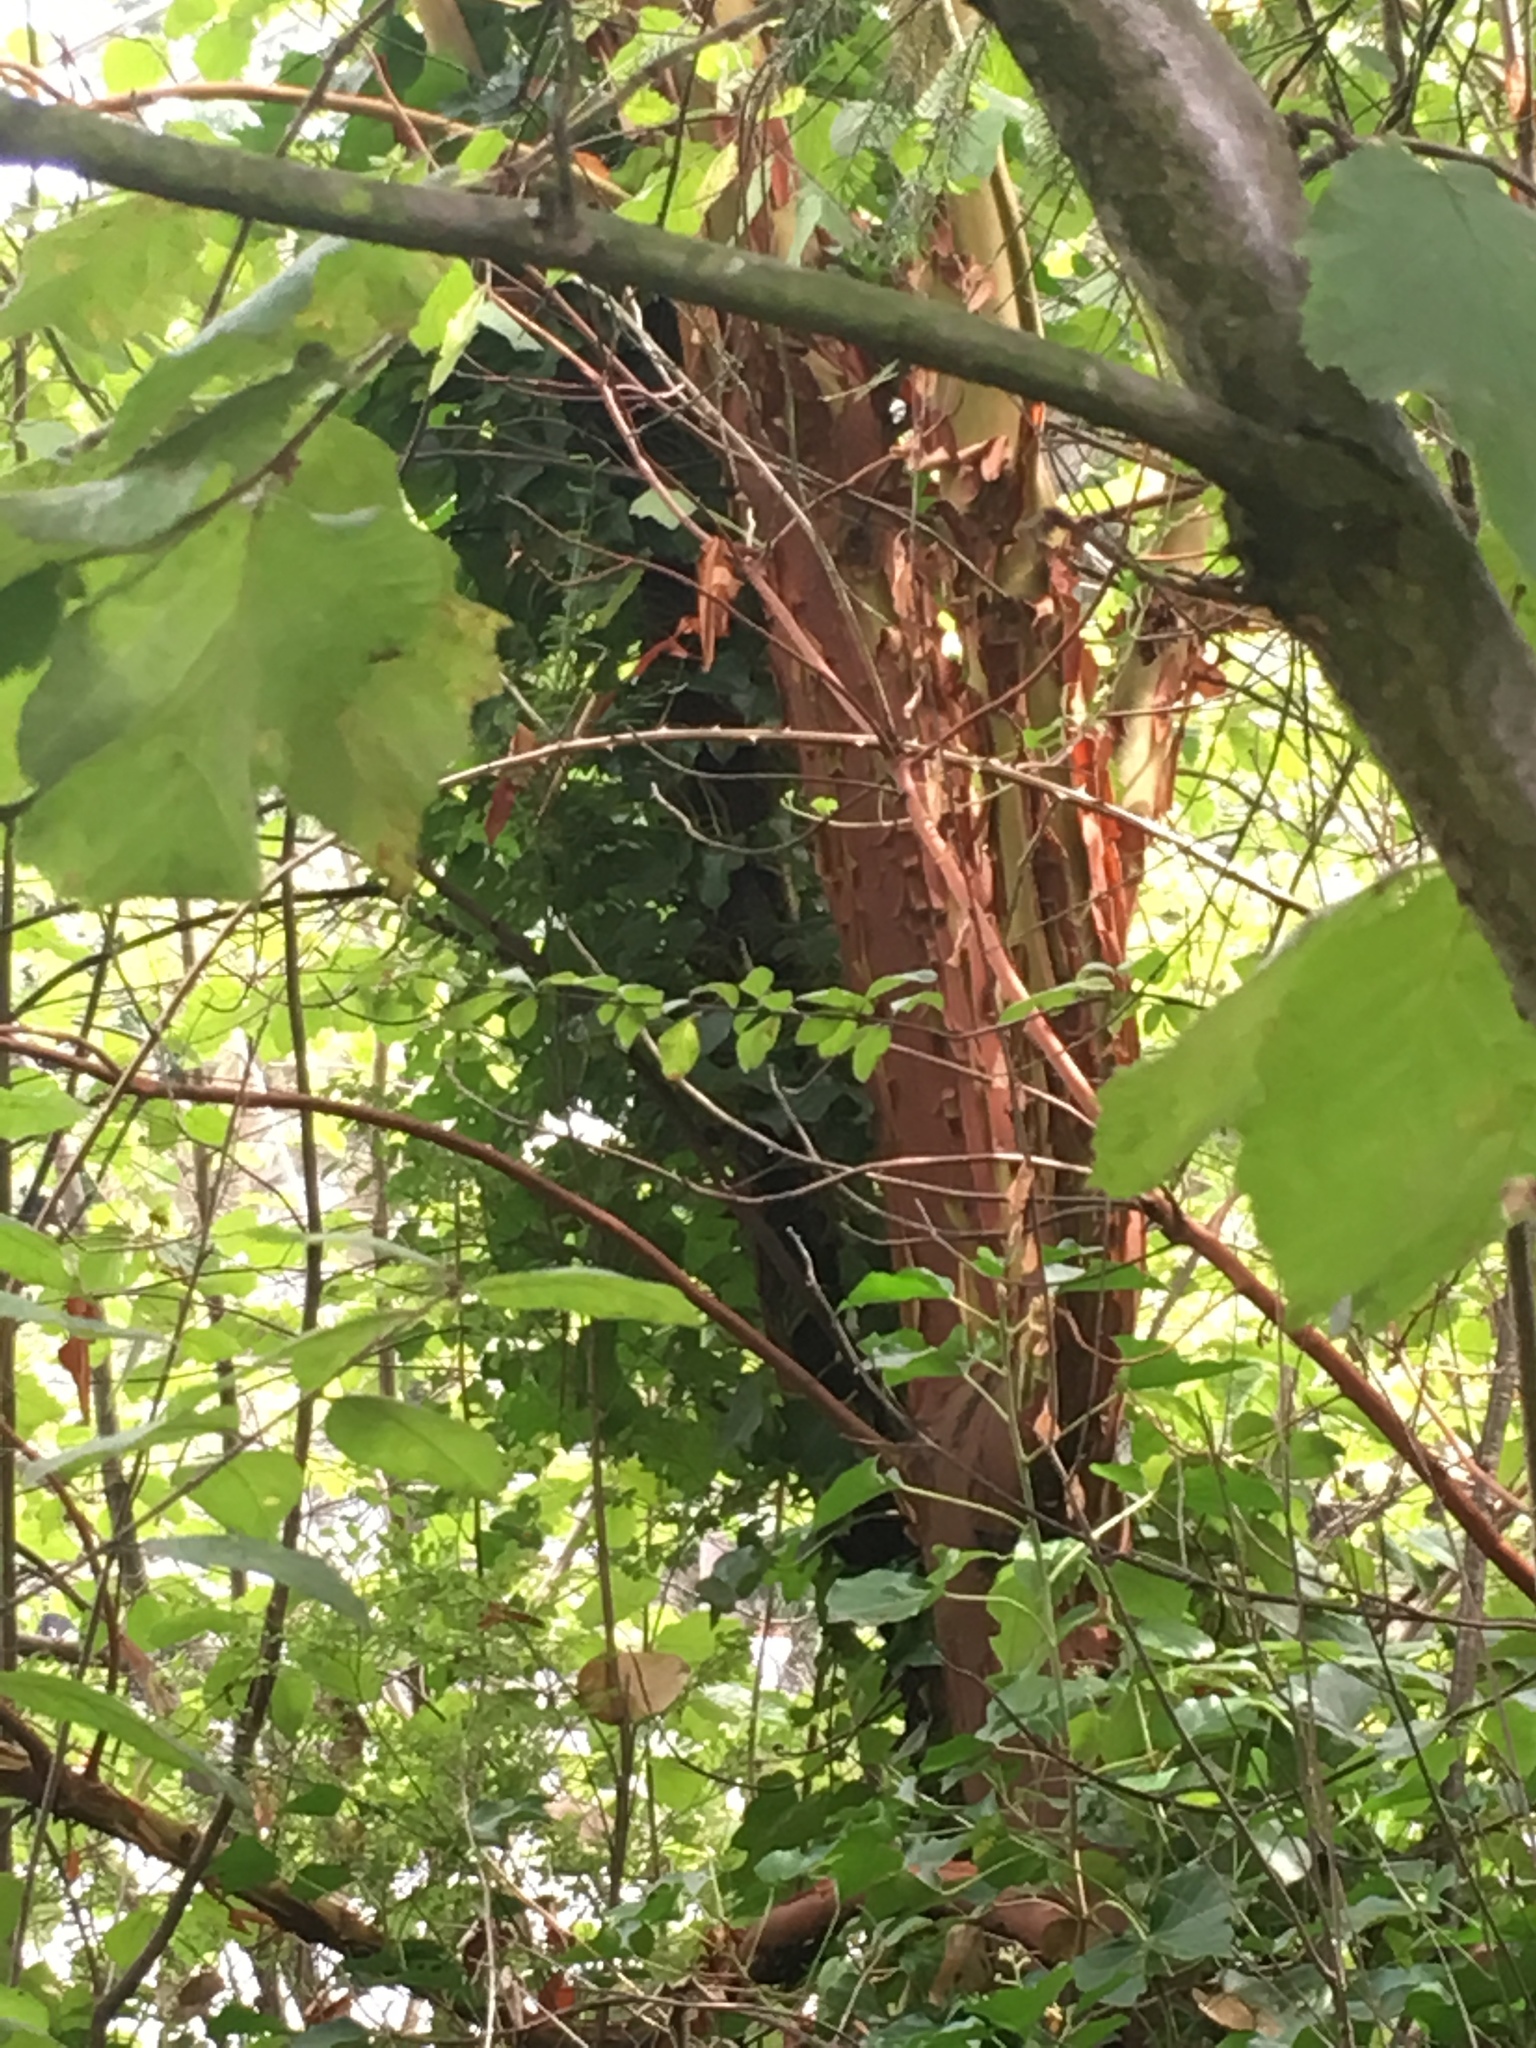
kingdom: Plantae
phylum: Tracheophyta
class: Magnoliopsida
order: Ericales
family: Ericaceae
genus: Arbutus
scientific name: Arbutus menziesii
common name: Pacific madrone
